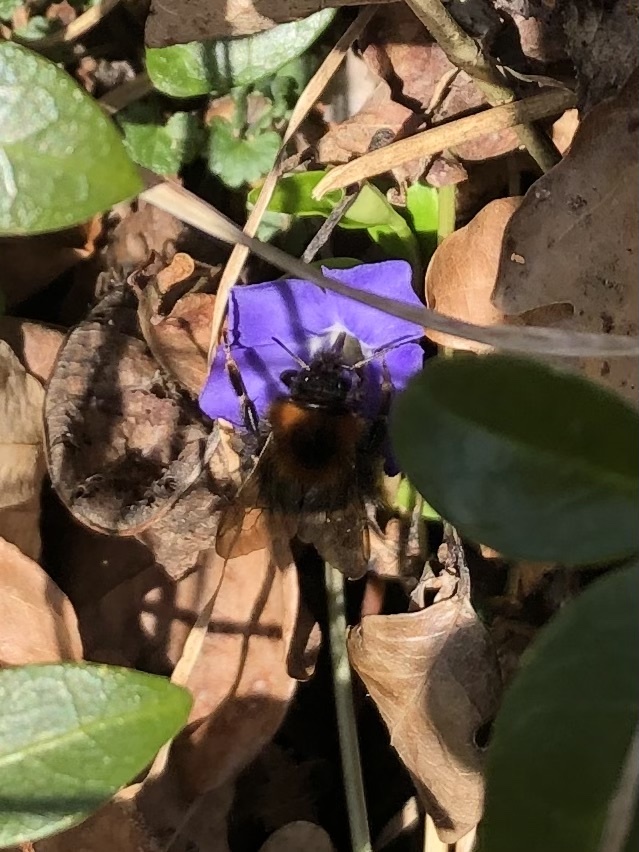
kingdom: Animalia
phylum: Arthropoda
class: Insecta
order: Hymenoptera
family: Apidae
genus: Bombus
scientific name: Bombus hypnorum
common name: New garden bumblebee
